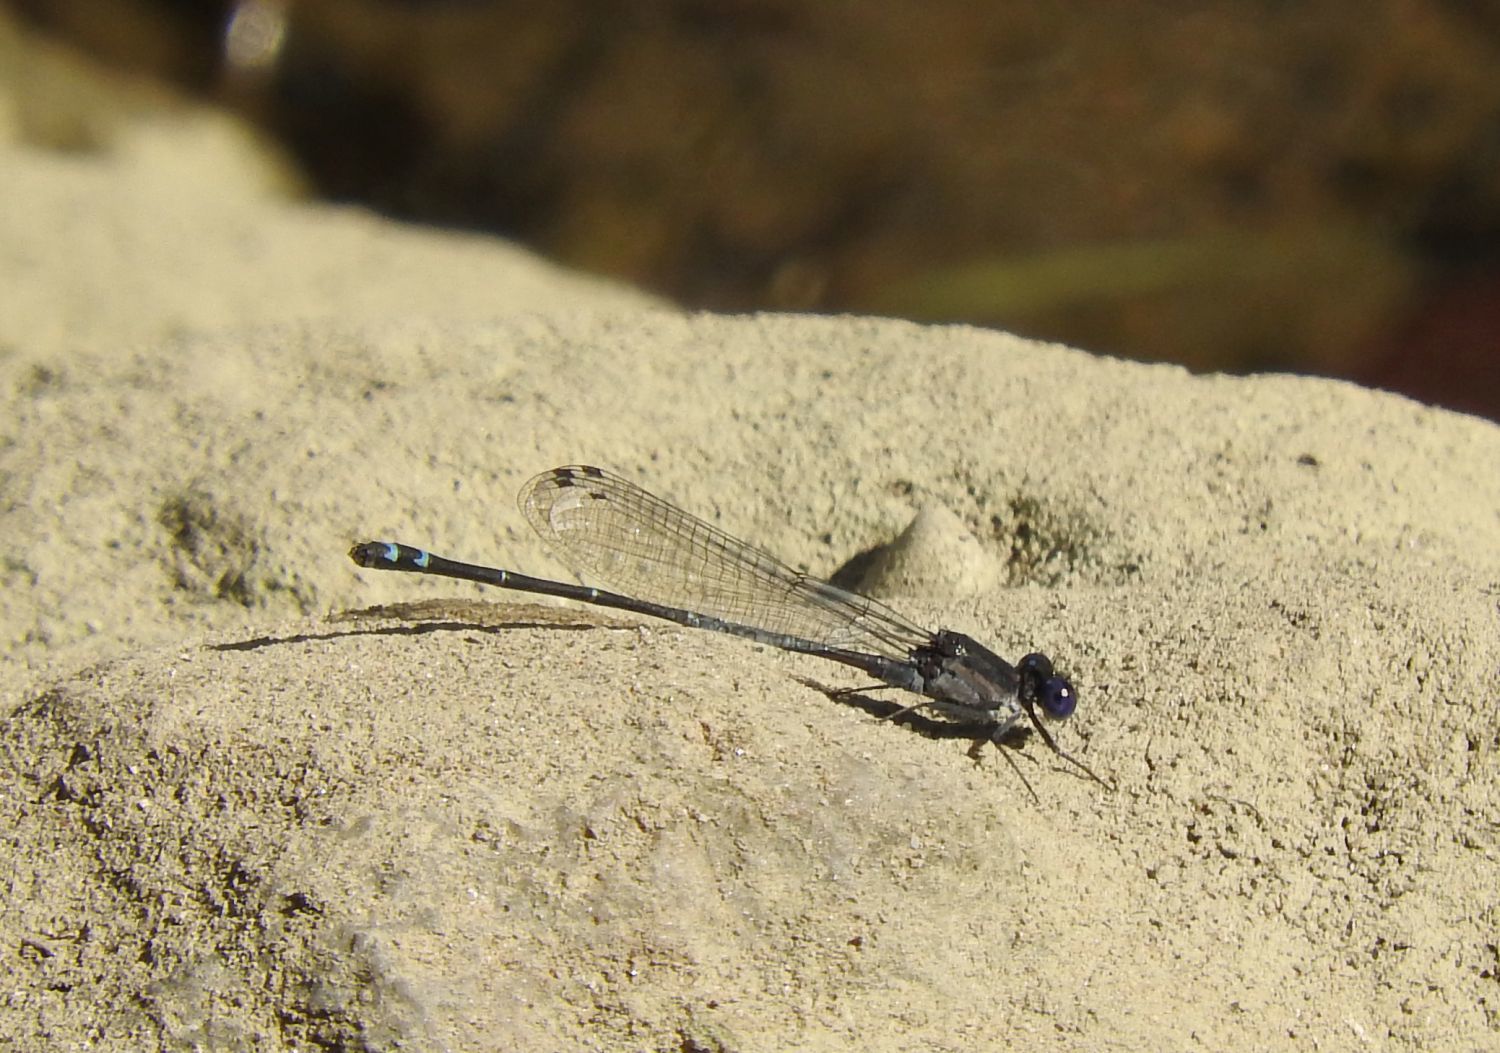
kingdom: Animalia
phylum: Arthropoda
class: Insecta
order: Odonata
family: Coenagrionidae
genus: Argia
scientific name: Argia translata
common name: Dusky dancer
